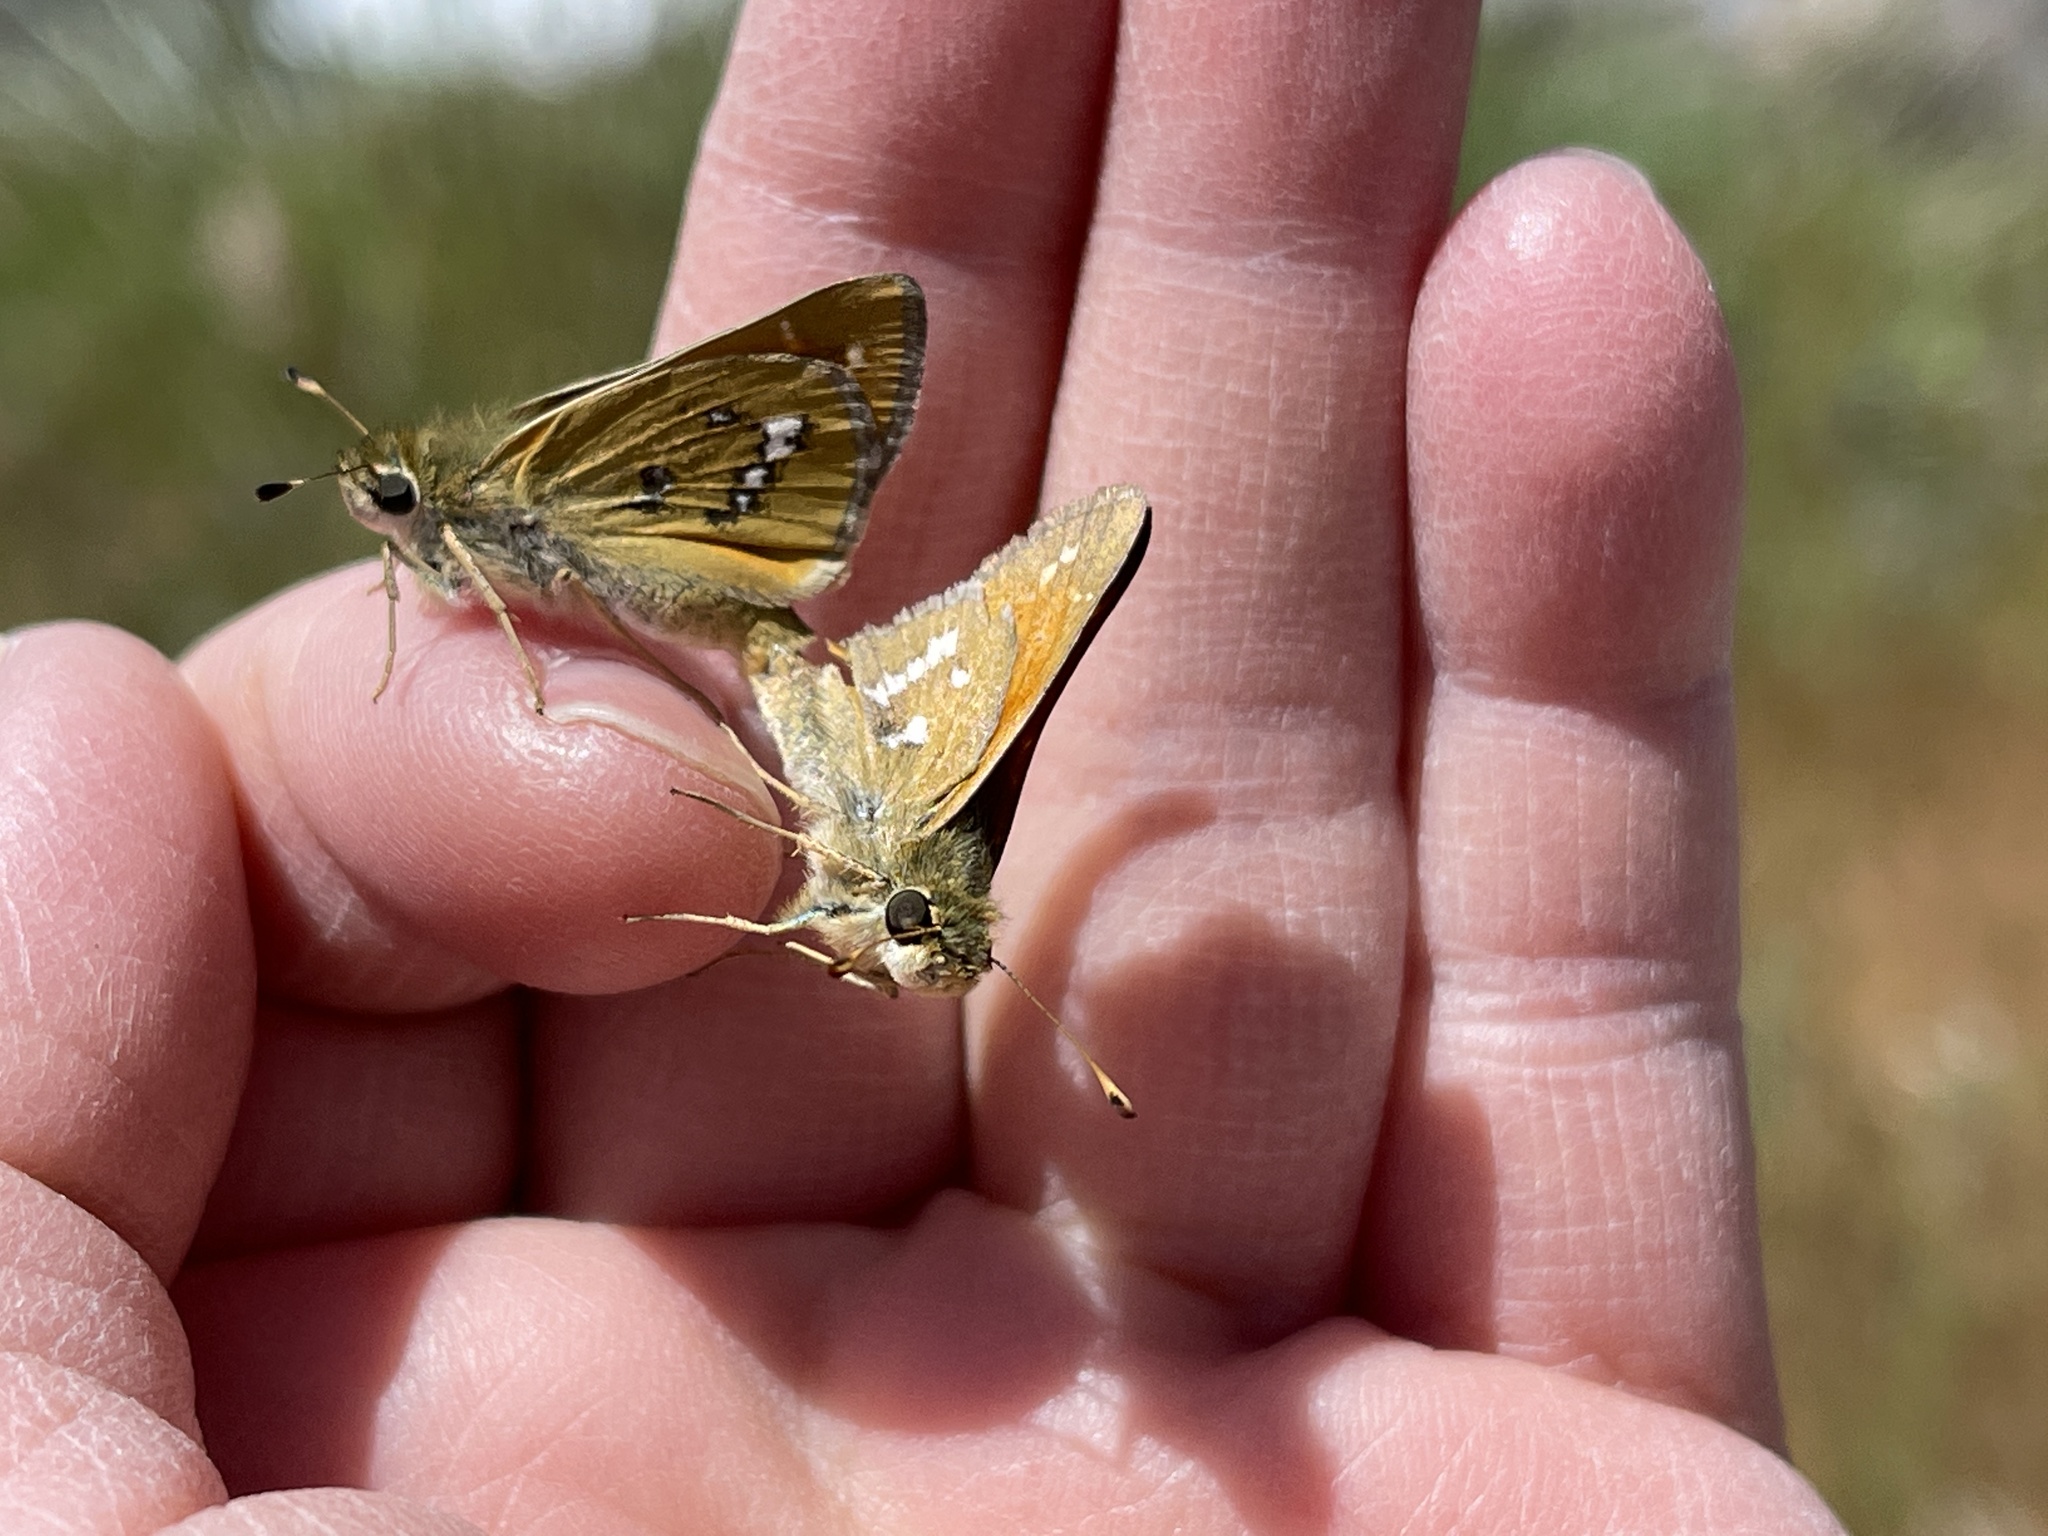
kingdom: Animalia
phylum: Arthropoda
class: Insecta
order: Lepidoptera
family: Hesperiidae
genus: Hesperia
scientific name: Hesperia columbia
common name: Columbian skipper
